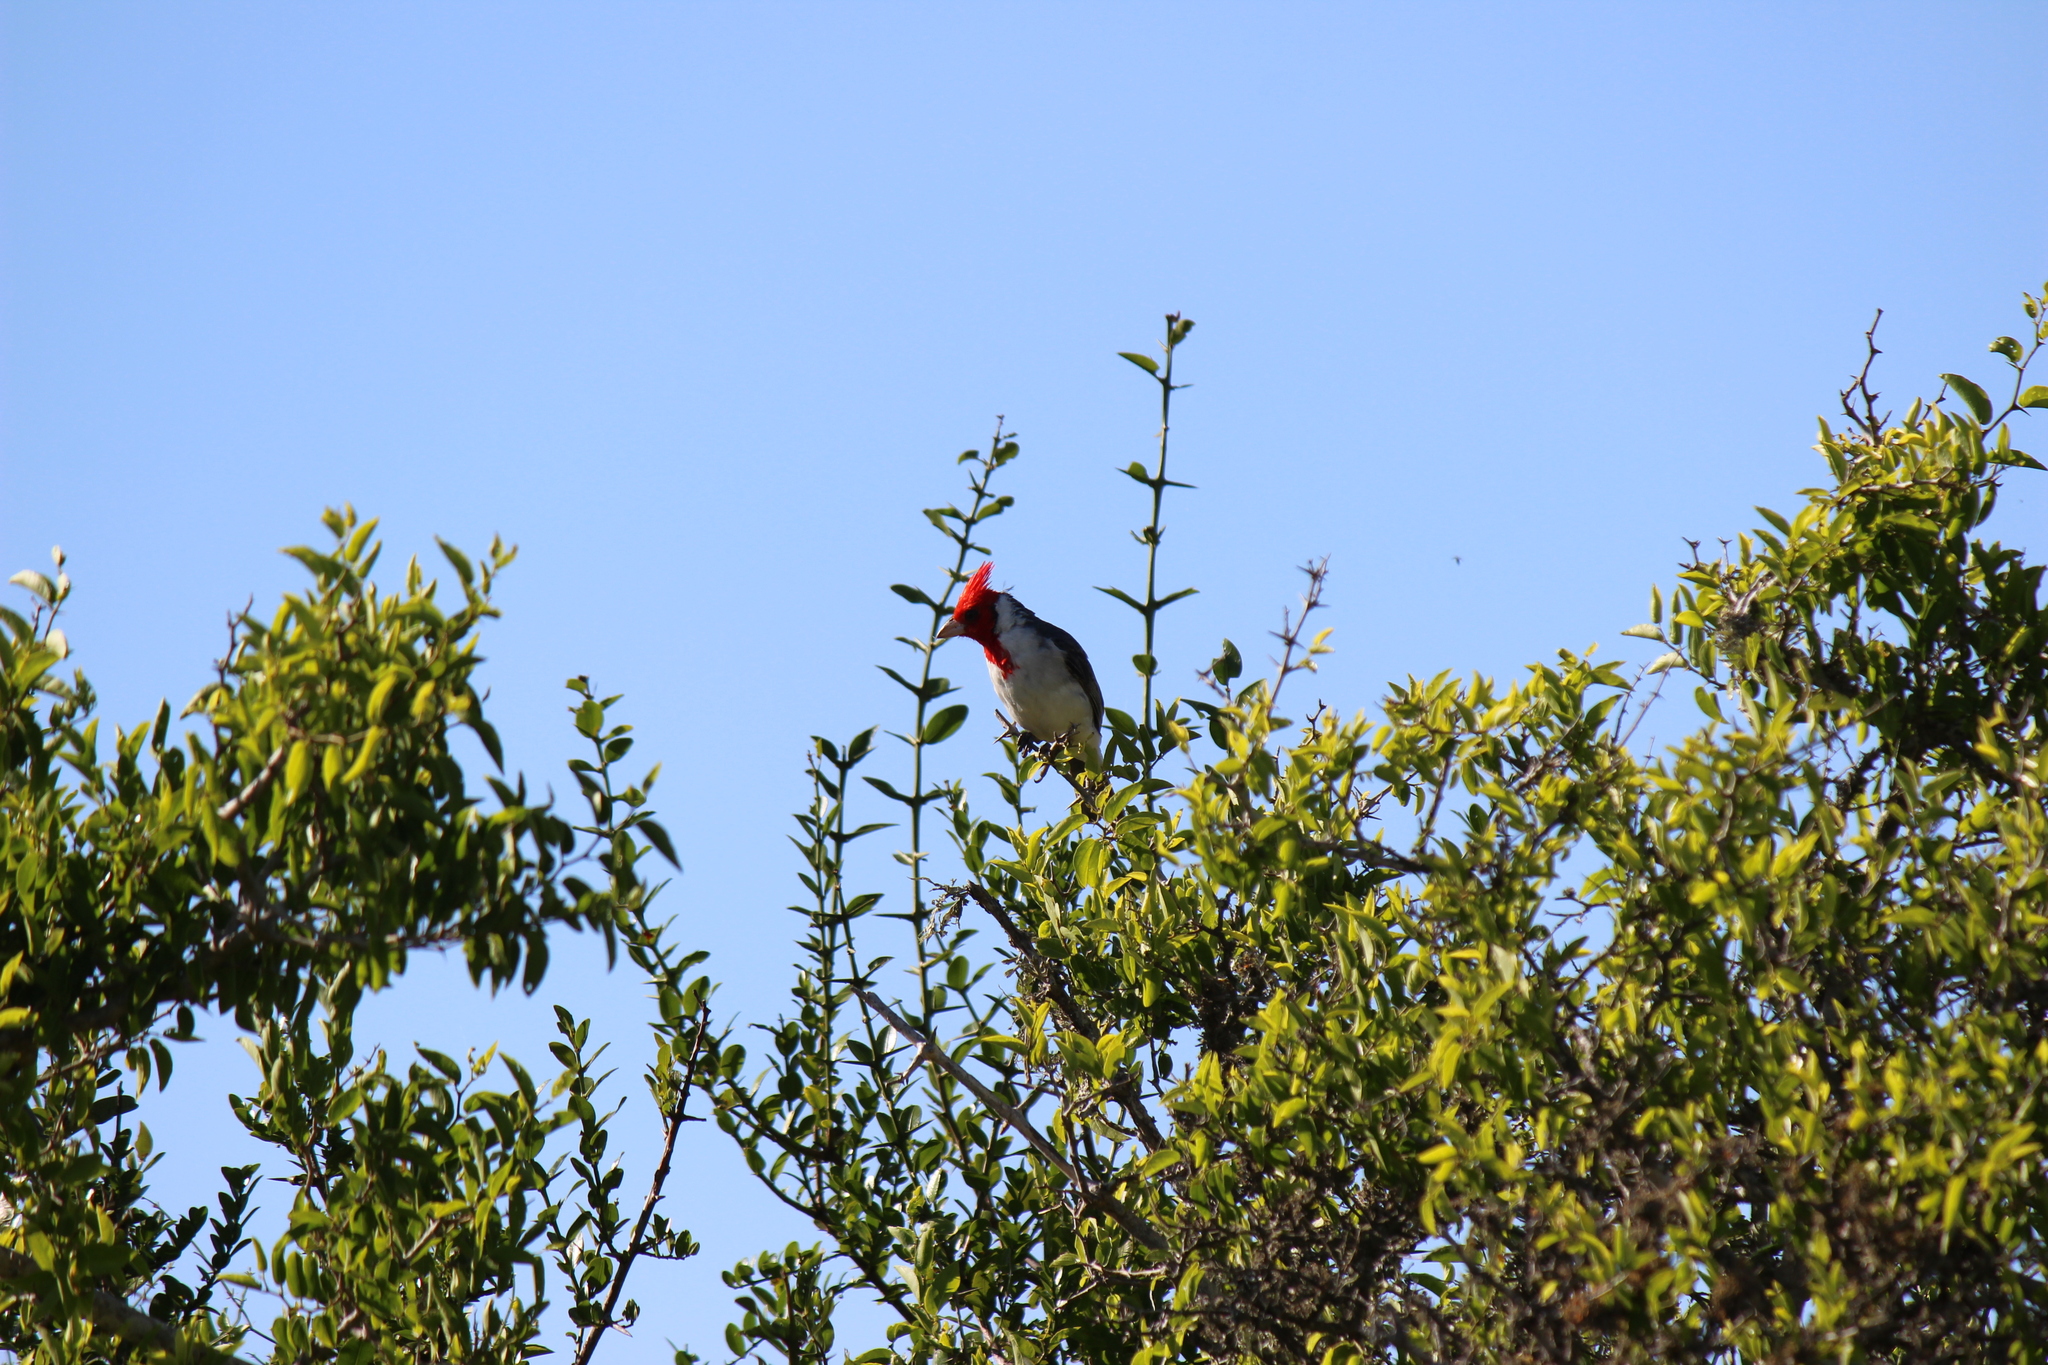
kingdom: Animalia
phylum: Chordata
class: Aves
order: Passeriformes
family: Thraupidae
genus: Paroaria
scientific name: Paroaria coronata
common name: Red-crested cardinal
